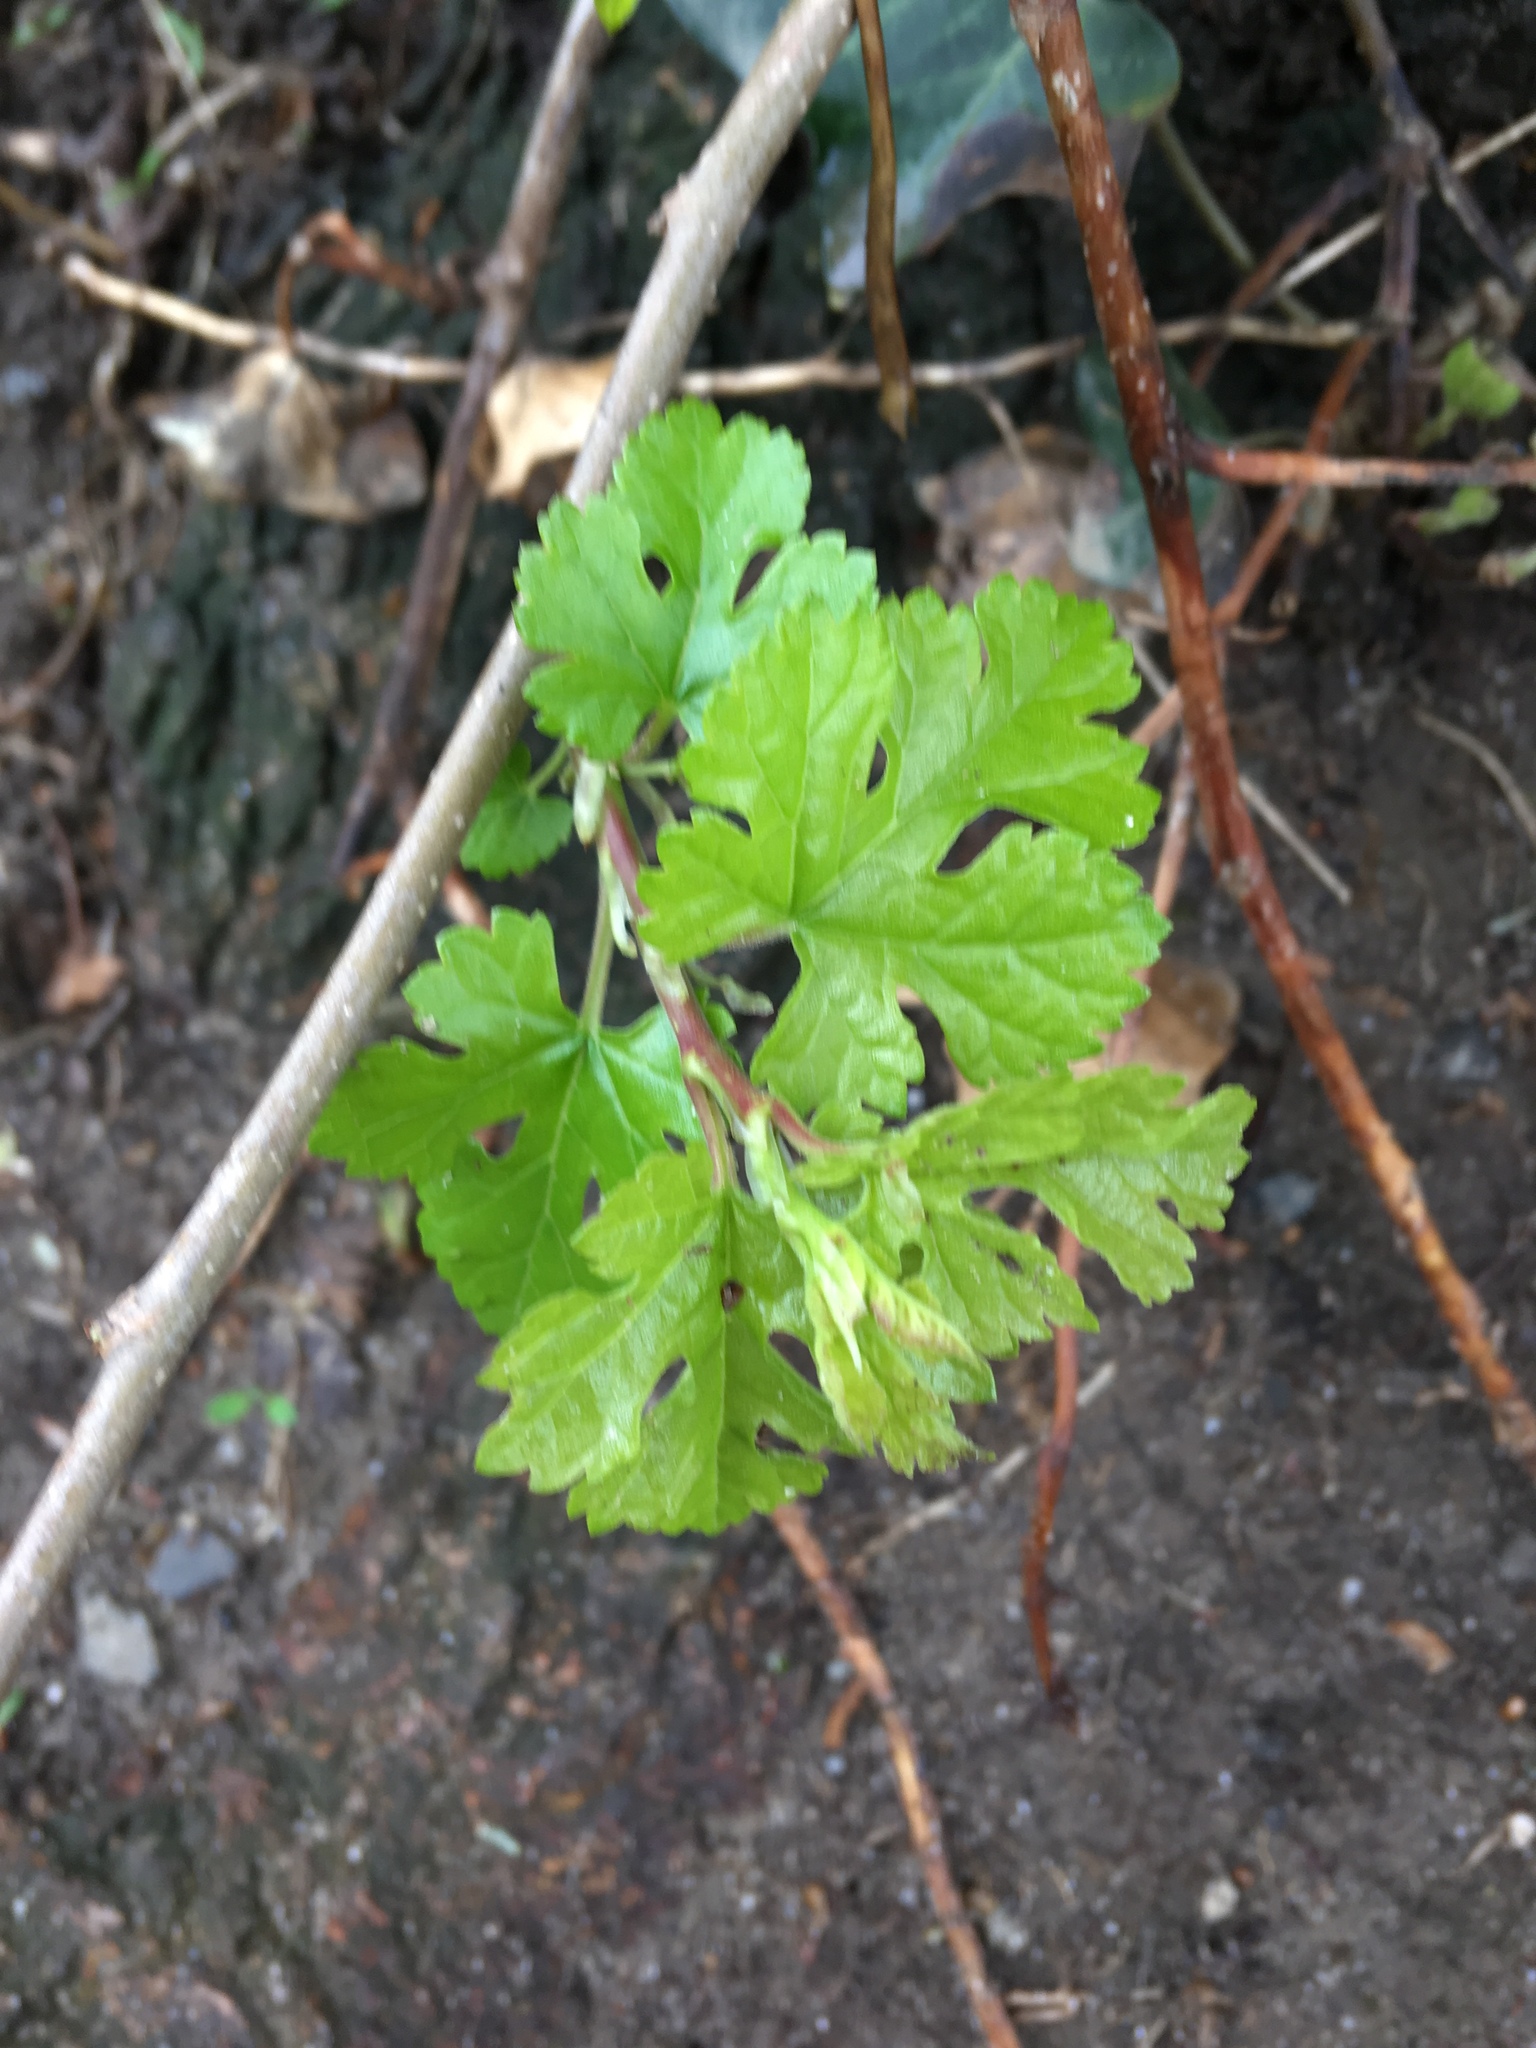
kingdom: Plantae
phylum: Tracheophyta
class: Magnoliopsida
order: Rosales
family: Moraceae
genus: Morus
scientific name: Morus alba
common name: White mulberry
